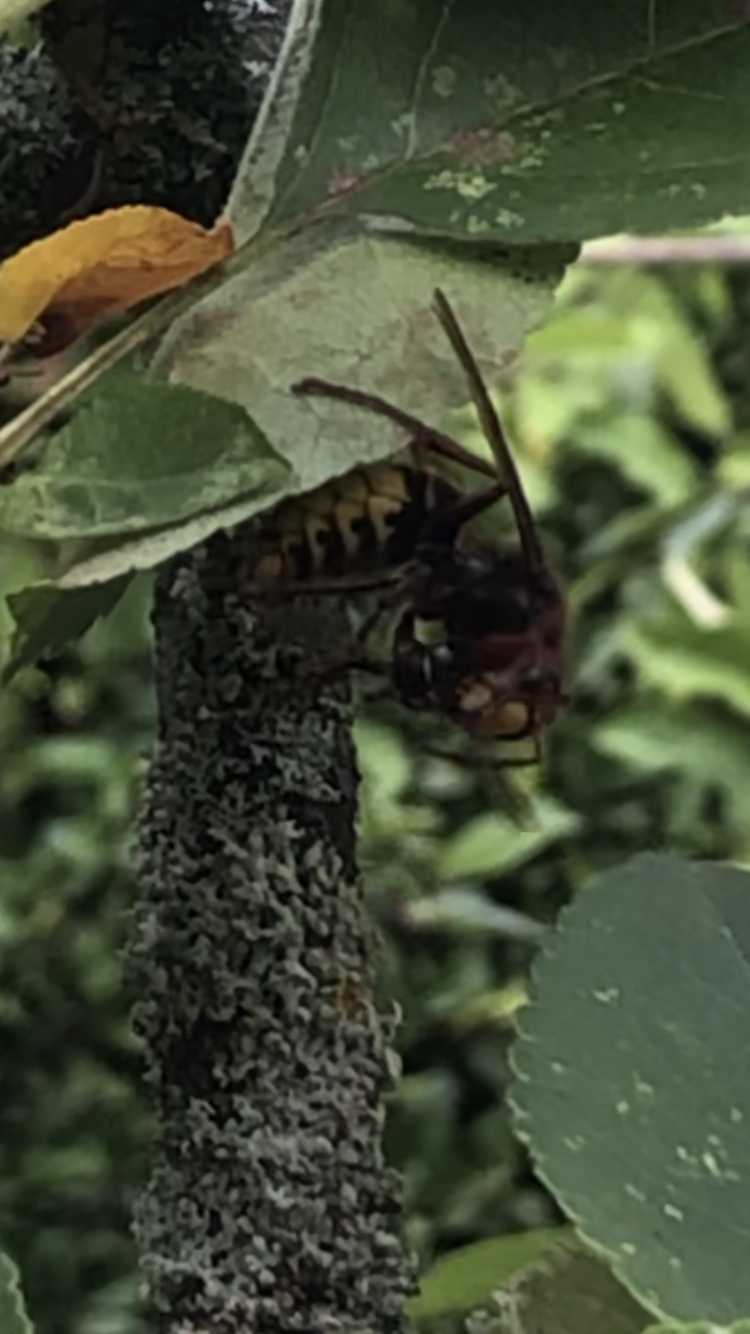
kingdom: Animalia
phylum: Arthropoda
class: Insecta
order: Hymenoptera
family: Vespidae
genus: Vespa
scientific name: Vespa crabro
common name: Hornet
